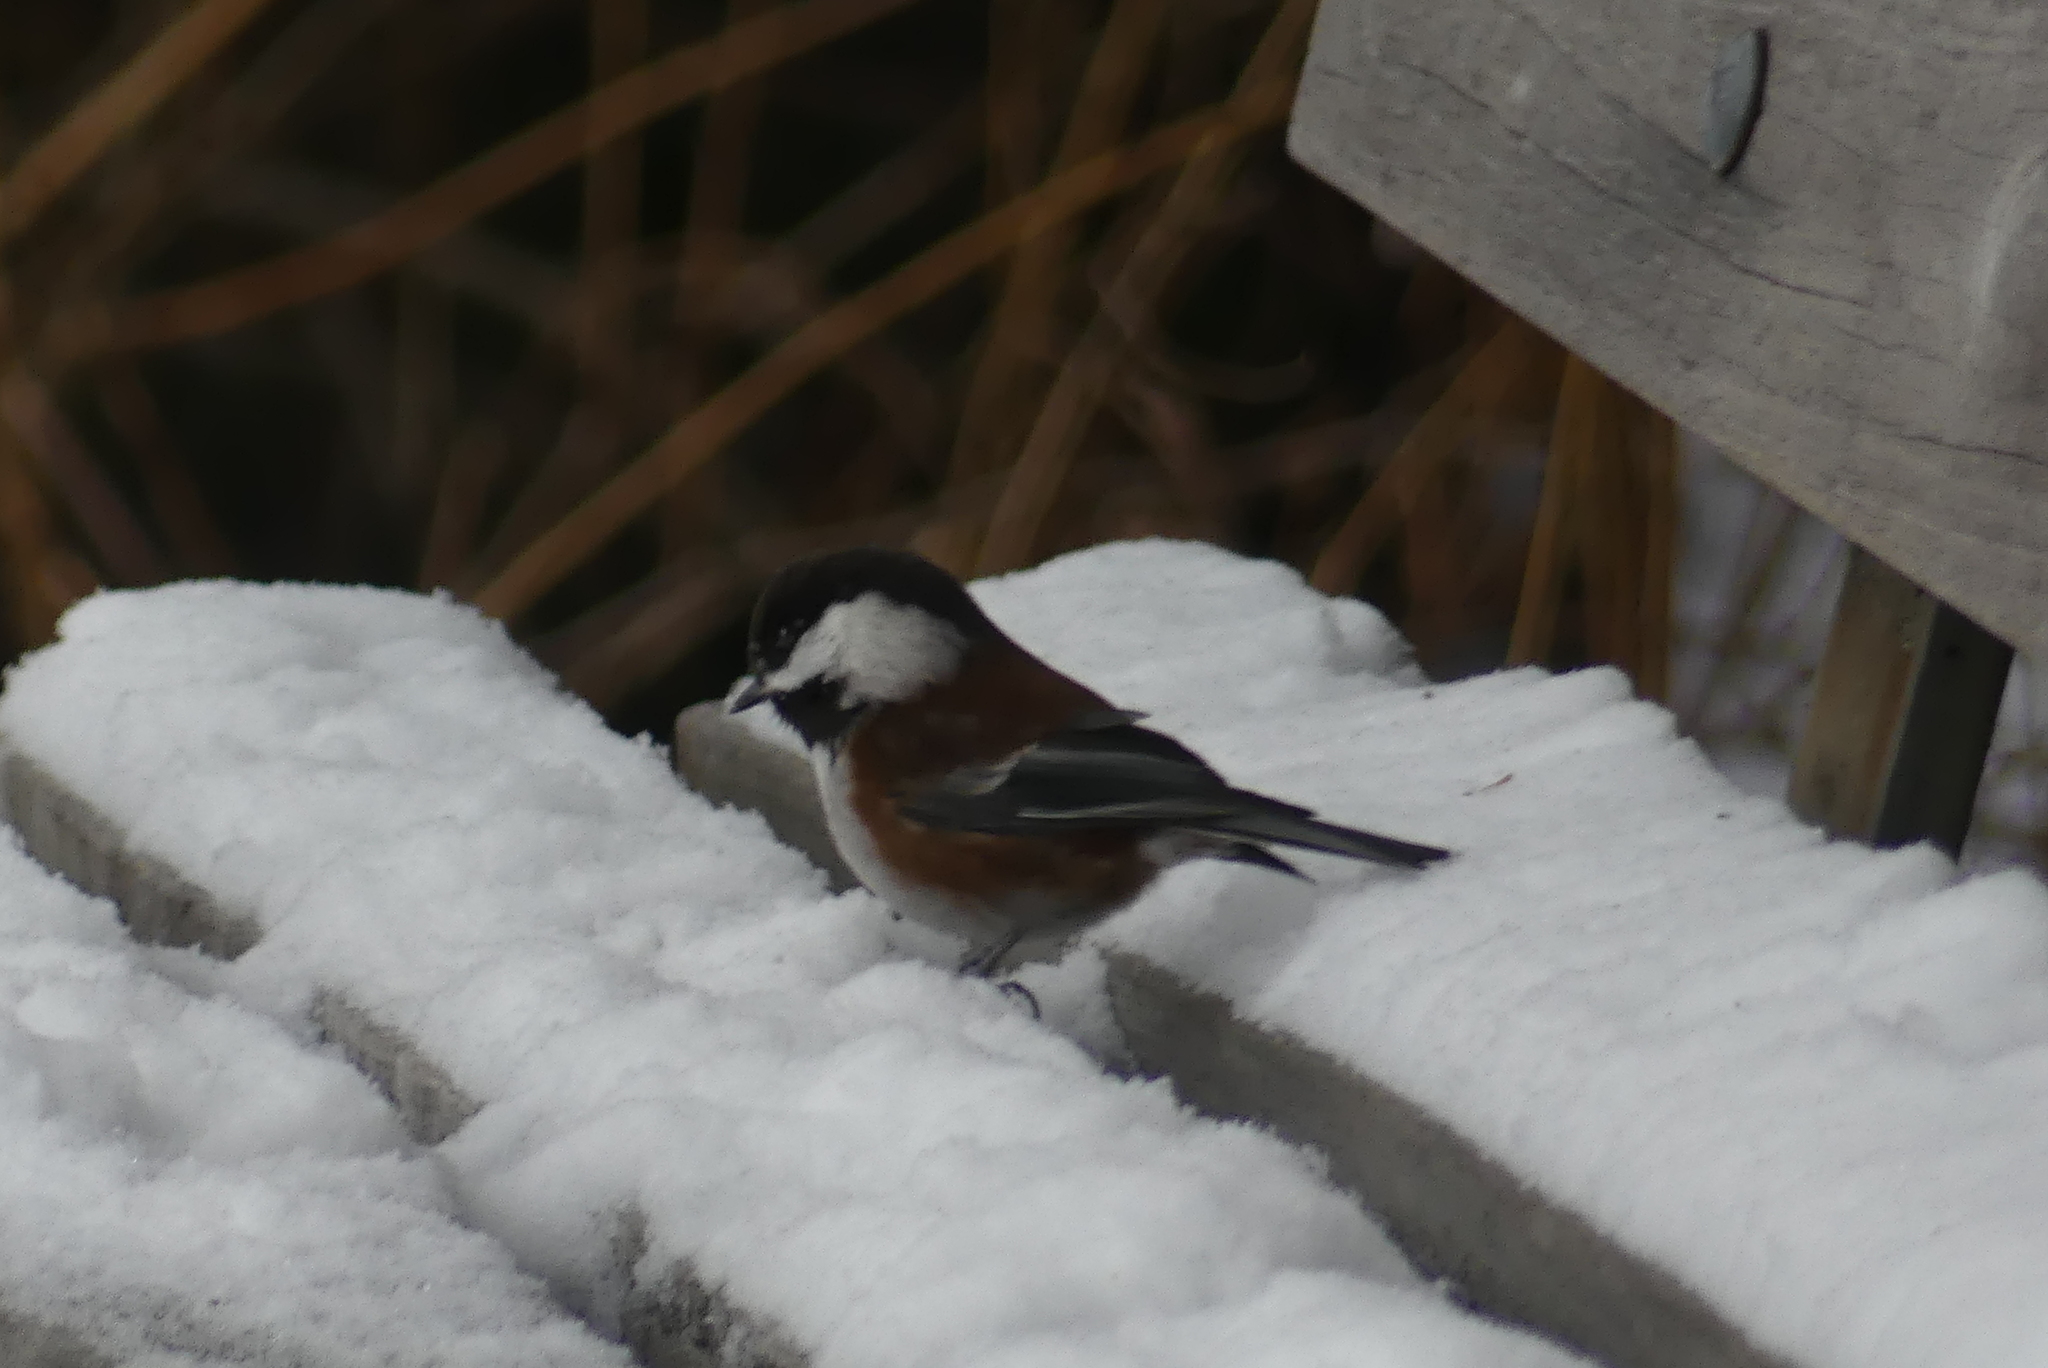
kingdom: Animalia
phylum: Chordata
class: Aves
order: Passeriformes
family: Paridae
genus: Poecile
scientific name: Poecile rufescens
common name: Chestnut-backed chickadee
